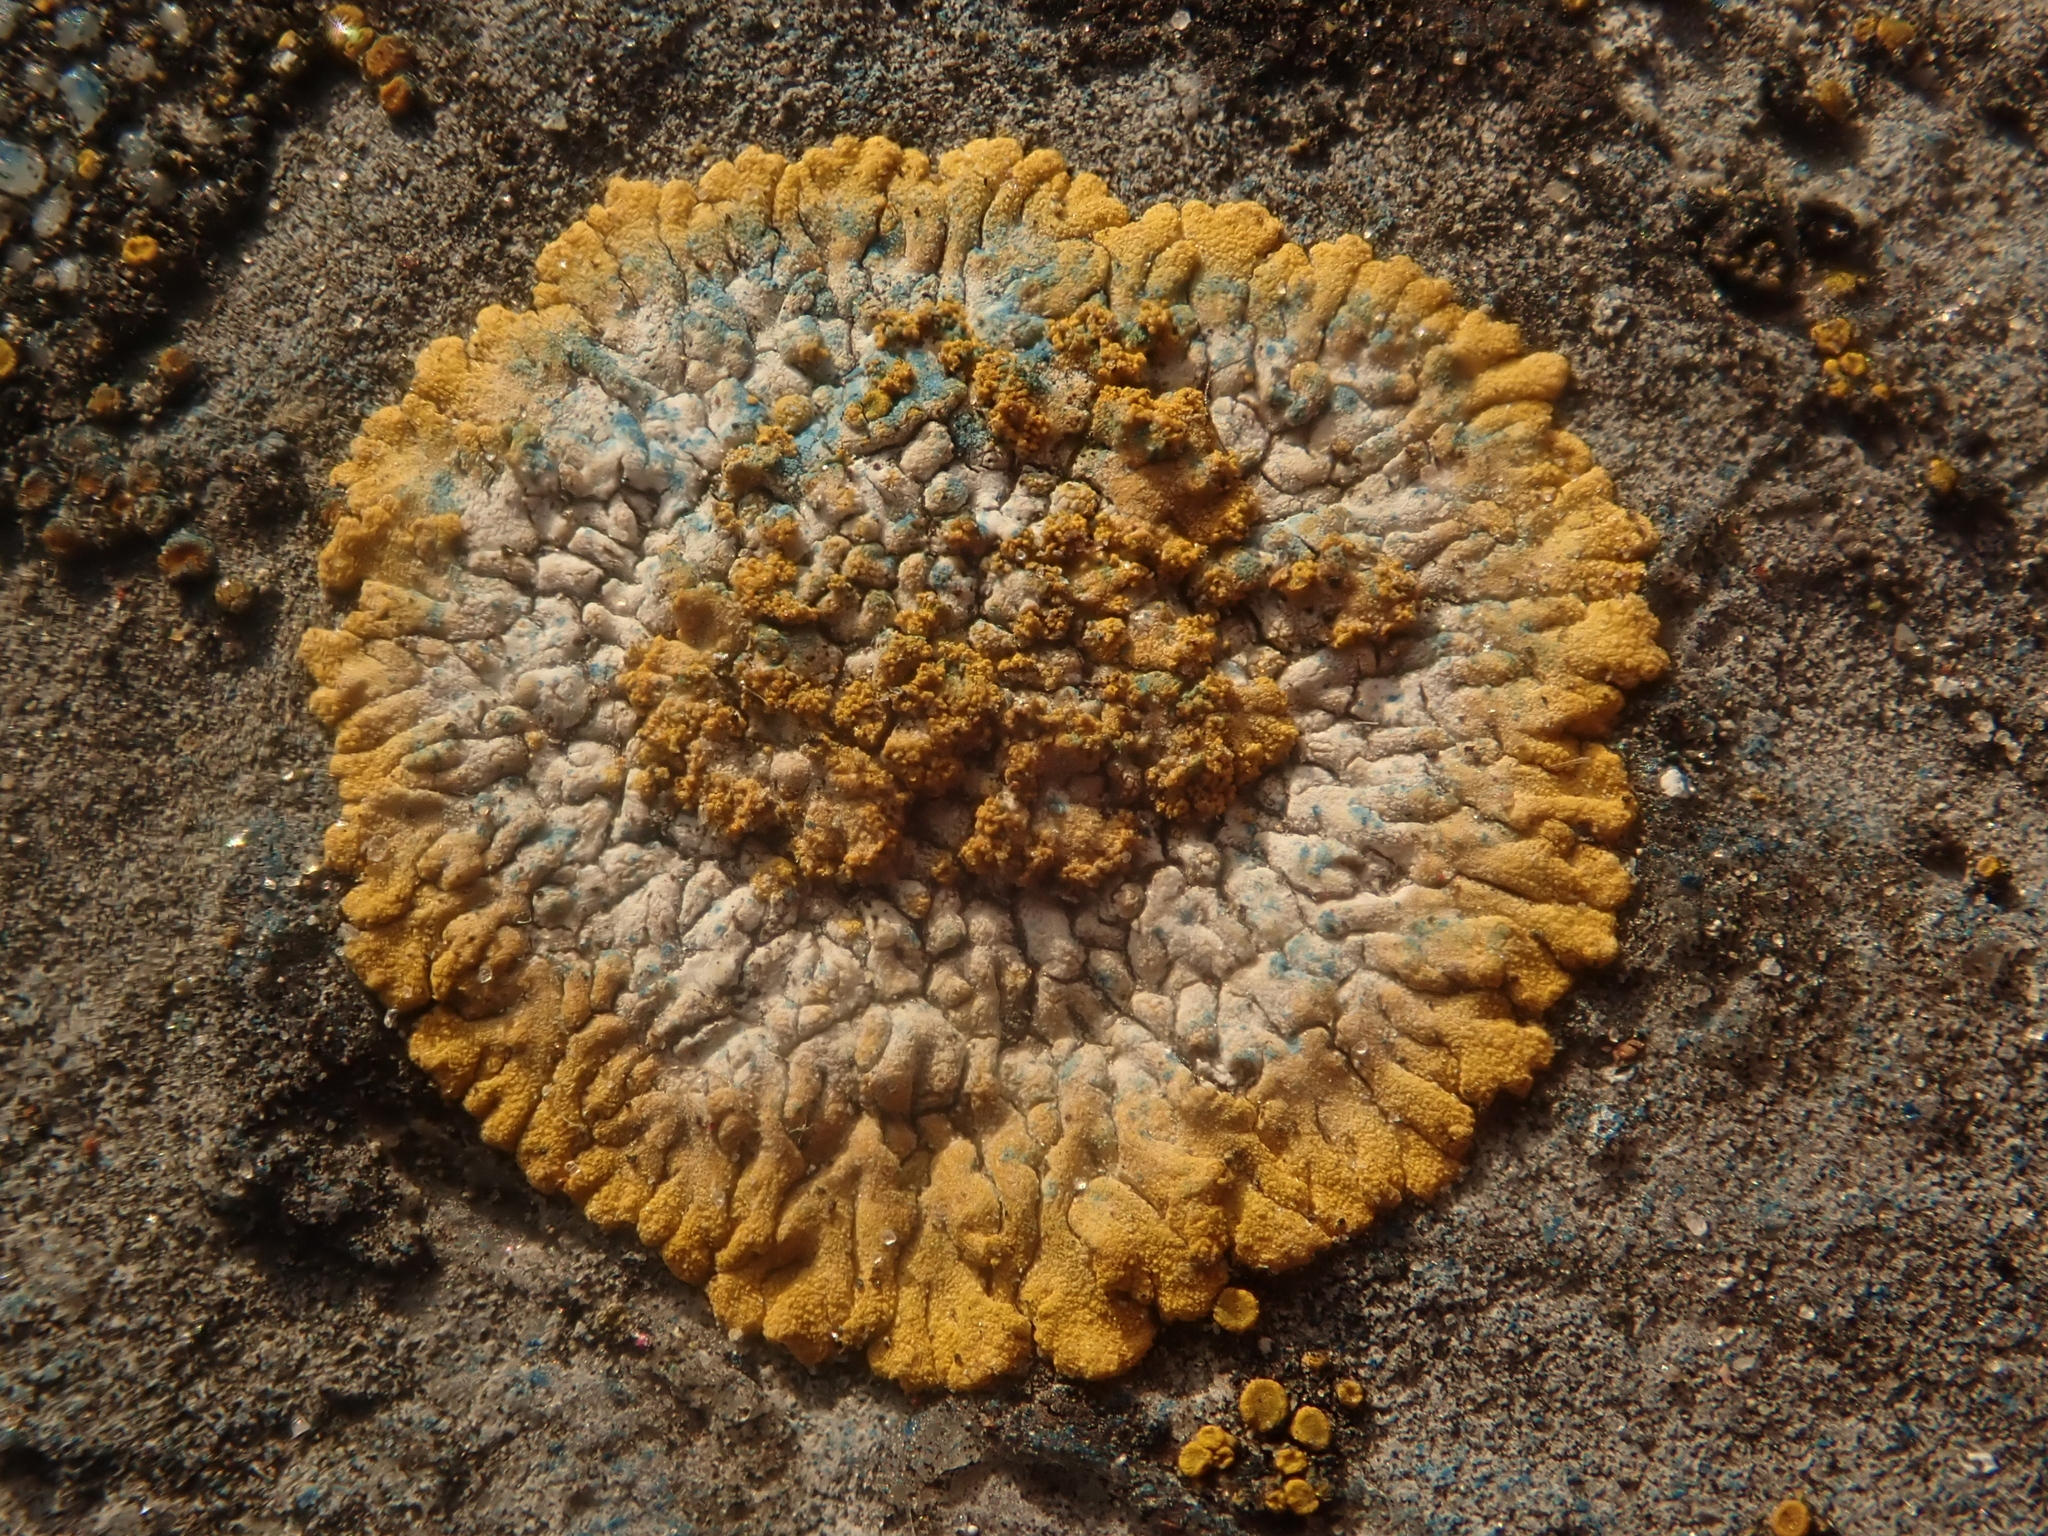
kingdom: Fungi
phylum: Ascomycota
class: Lecanoromycetes
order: Teloschistales
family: Teloschistaceae
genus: Calogaya
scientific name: Calogaya decipiens
